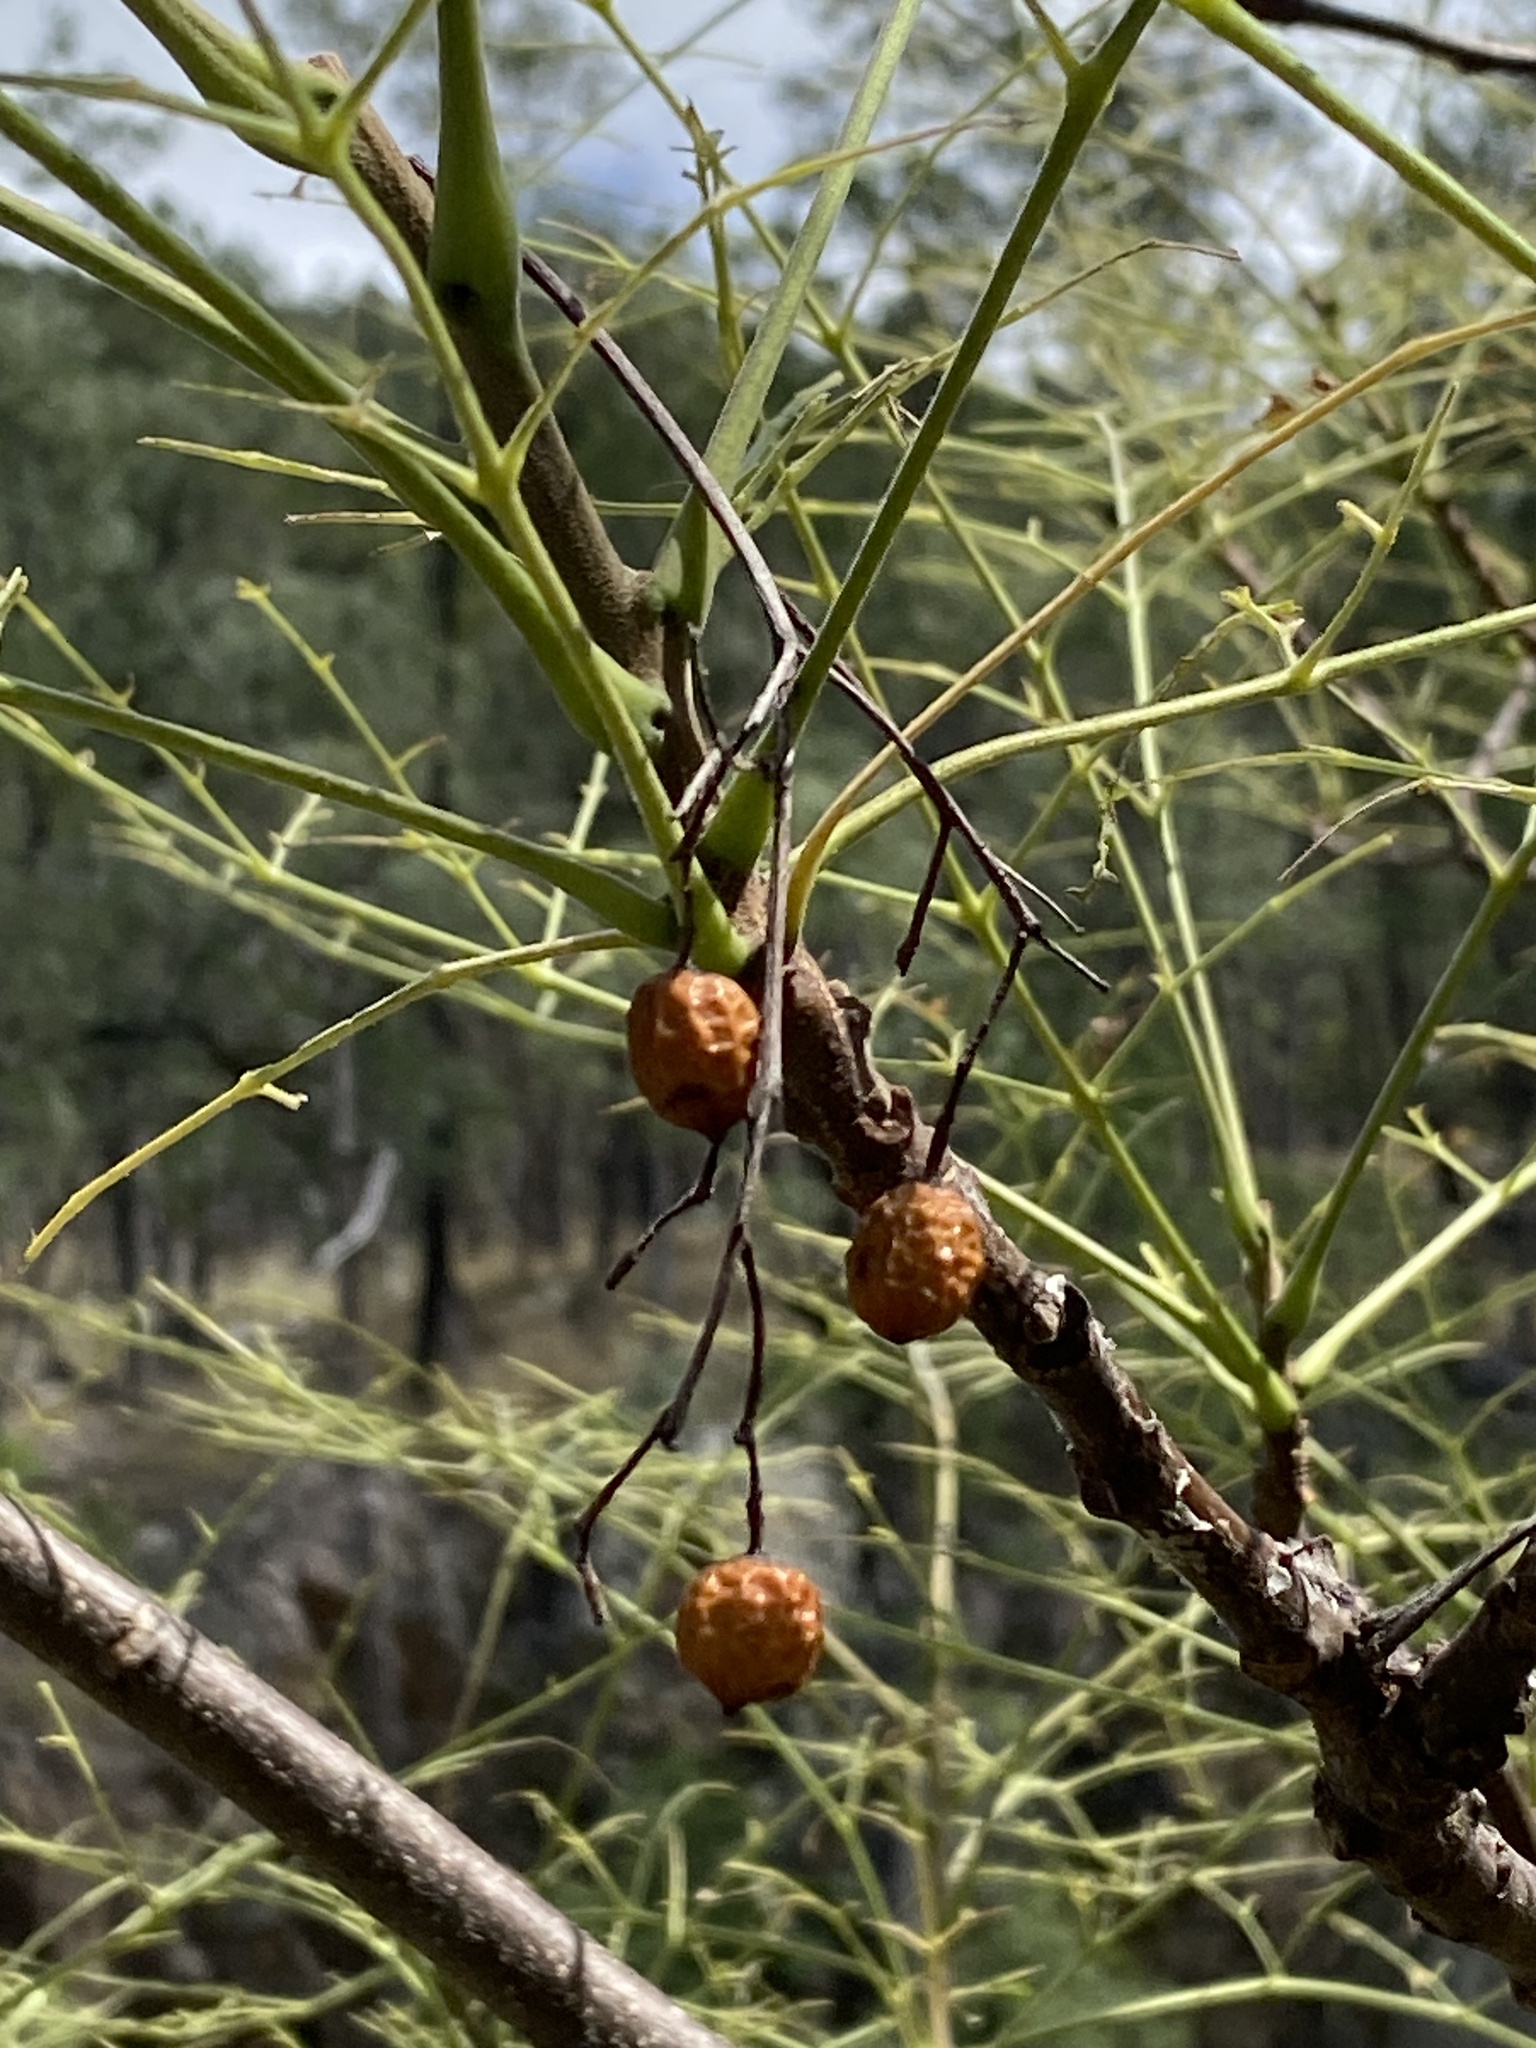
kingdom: Plantae
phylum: Tracheophyta
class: Magnoliopsida
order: Sapindales
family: Meliaceae
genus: Melia
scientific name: Melia azedarach
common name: Chinaberrytree
